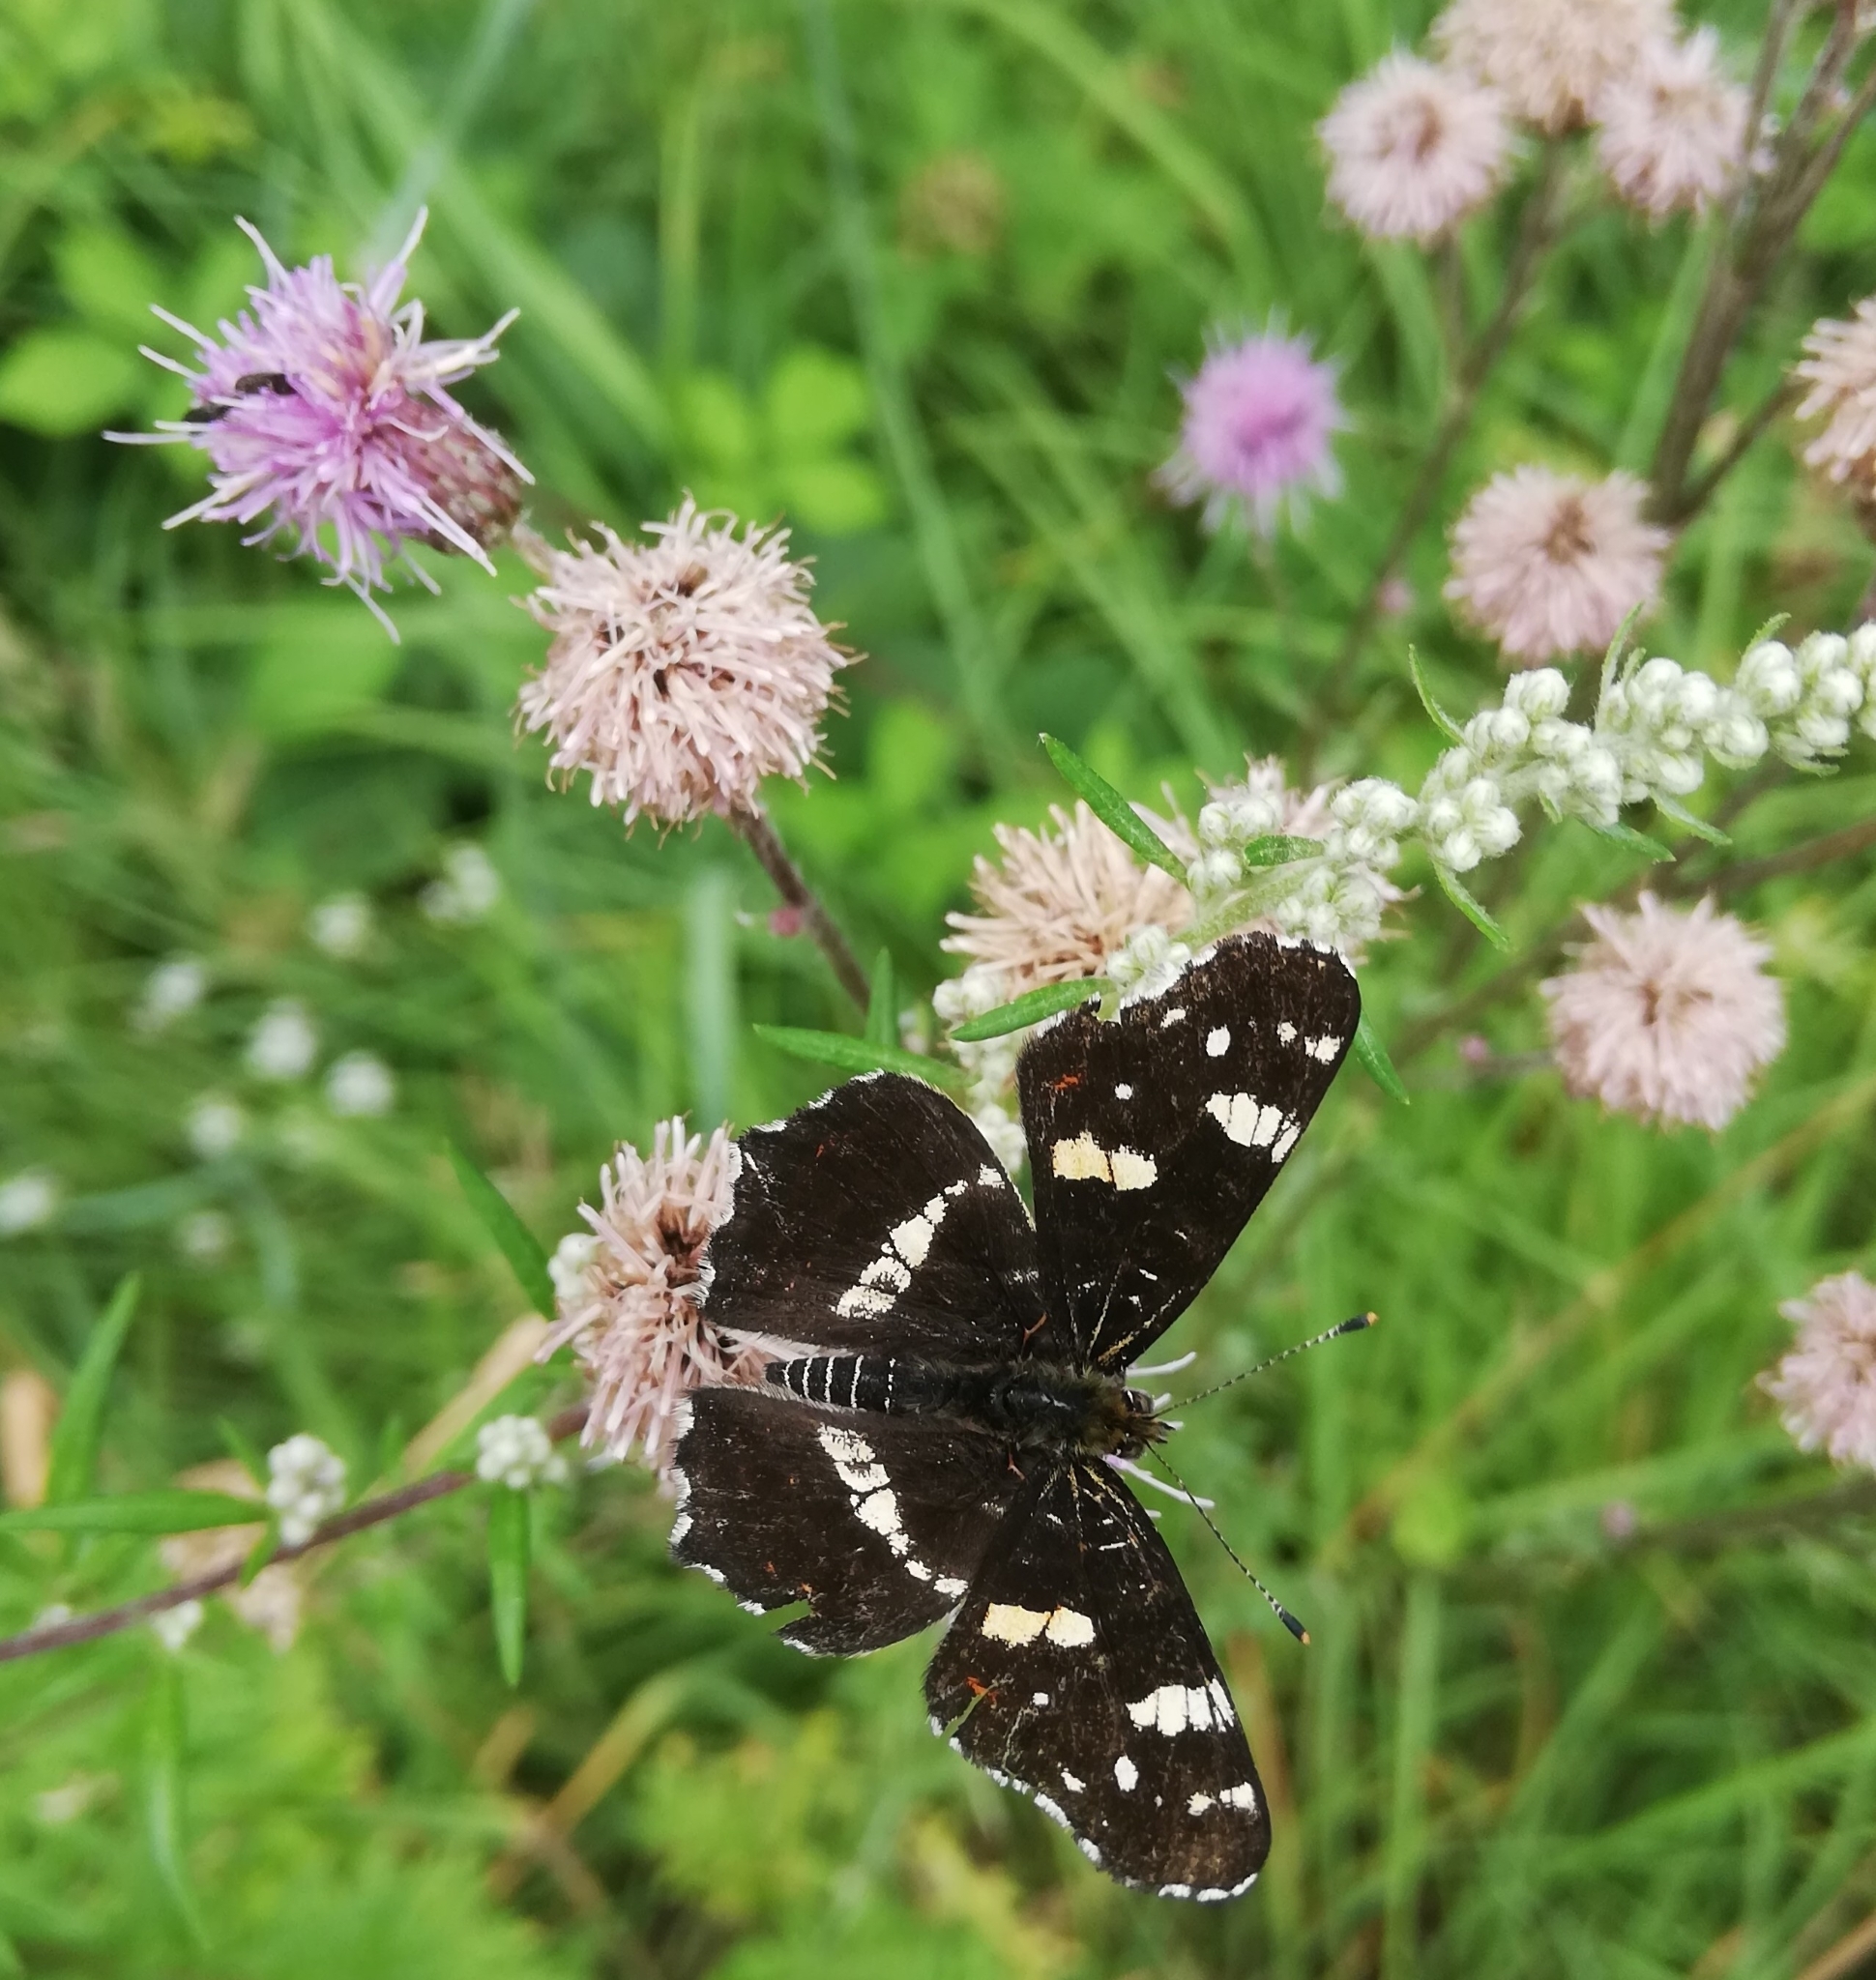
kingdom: Animalia
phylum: Arthropoda
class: Insecta
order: Lepidoptera
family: Nymphalidae
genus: Araschnia
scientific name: Araschnia levana
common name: Map butterfly
